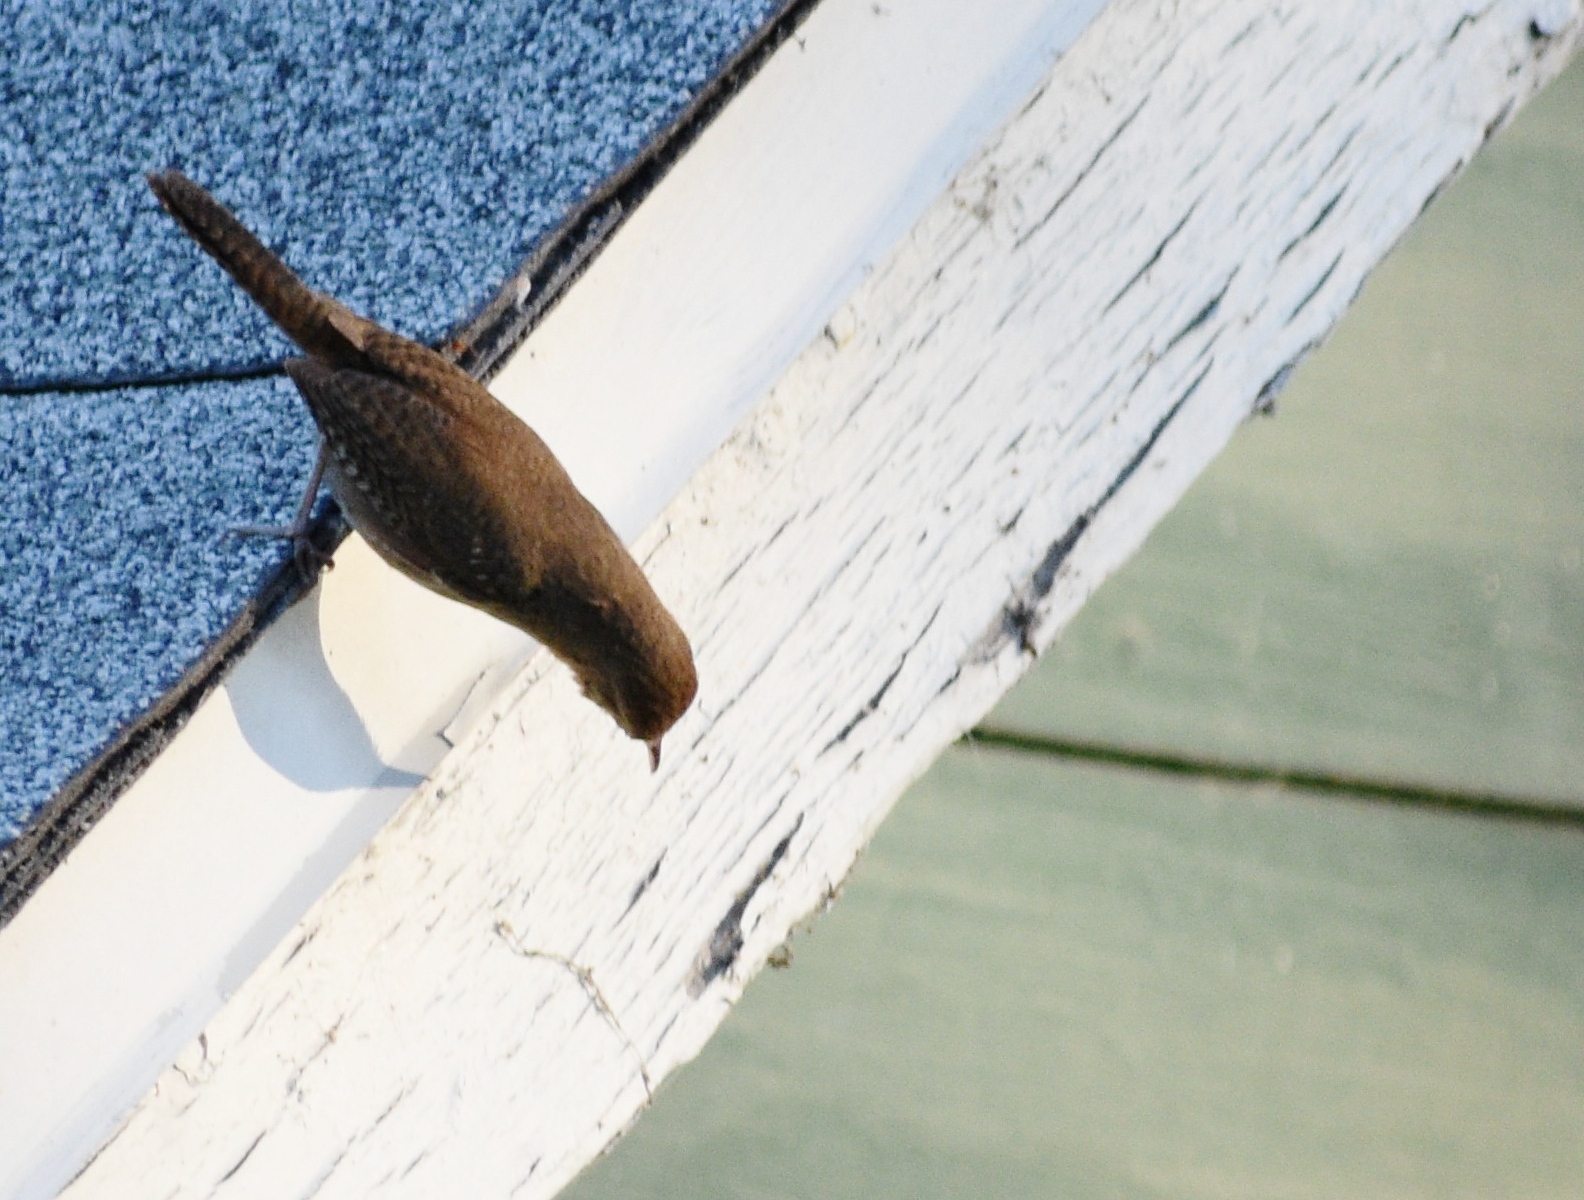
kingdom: Animalia
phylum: Chordata
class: Aves
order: Passeriformes
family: Troglodytidae
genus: Troglodytes
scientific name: Troglodytes aedon
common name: House wren
